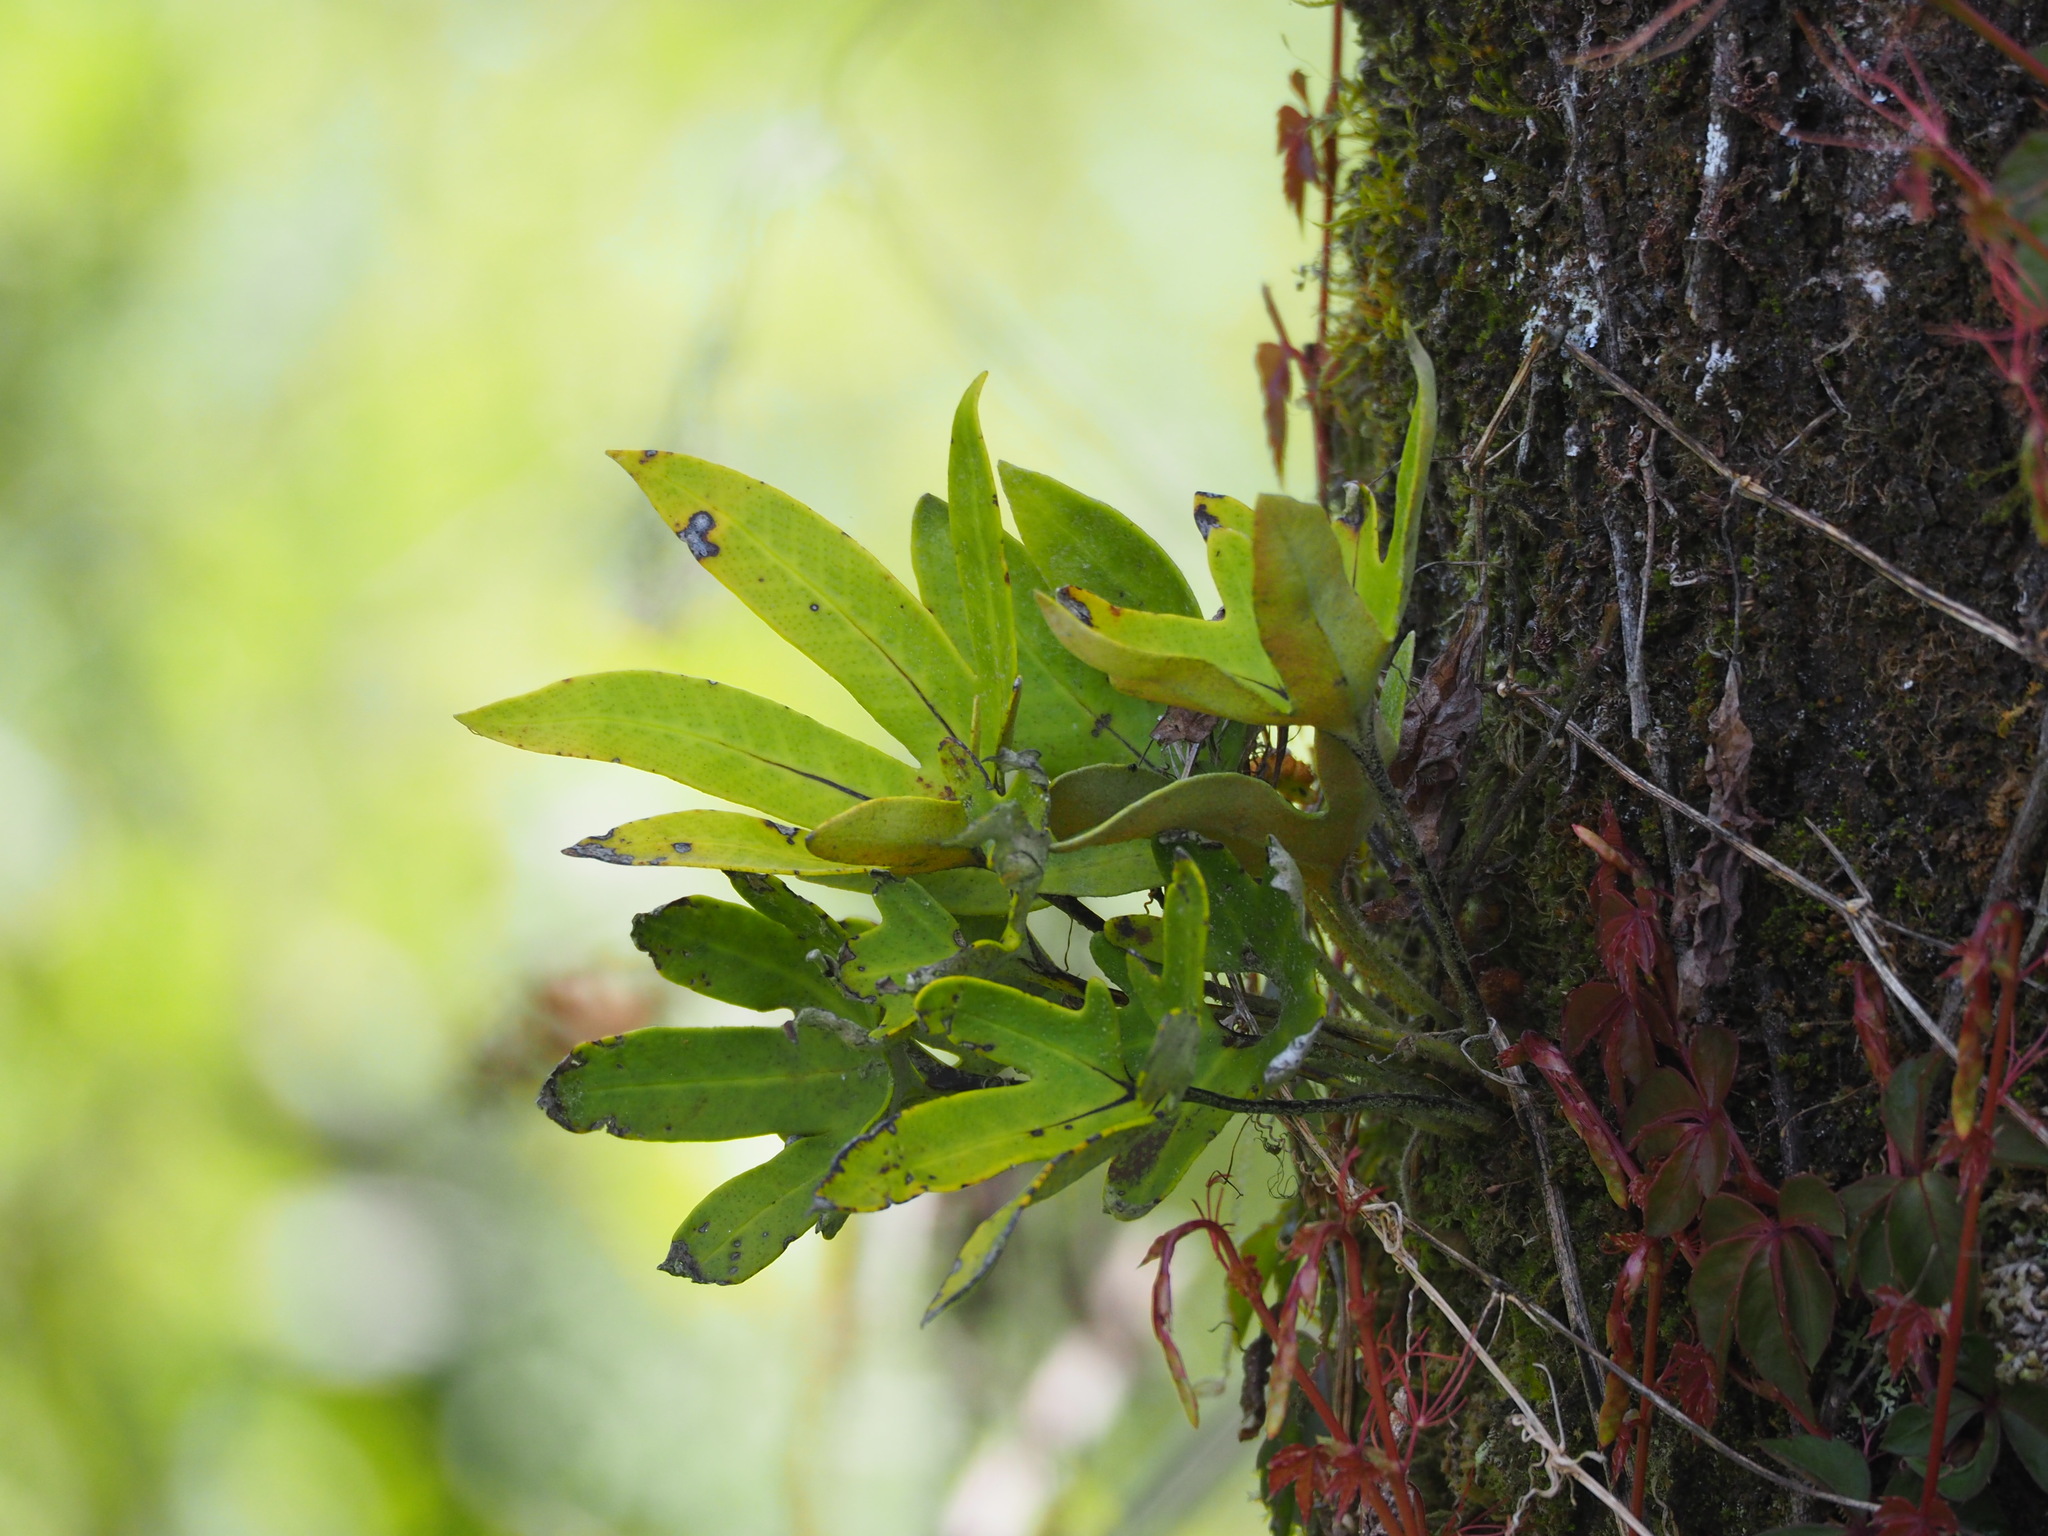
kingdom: Plantae
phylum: Tracheophyta
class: Polypodiopsida
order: Polypodiales
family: Polypodiaceae
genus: Pyrrosia
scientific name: Pyrrosia polydactyla
